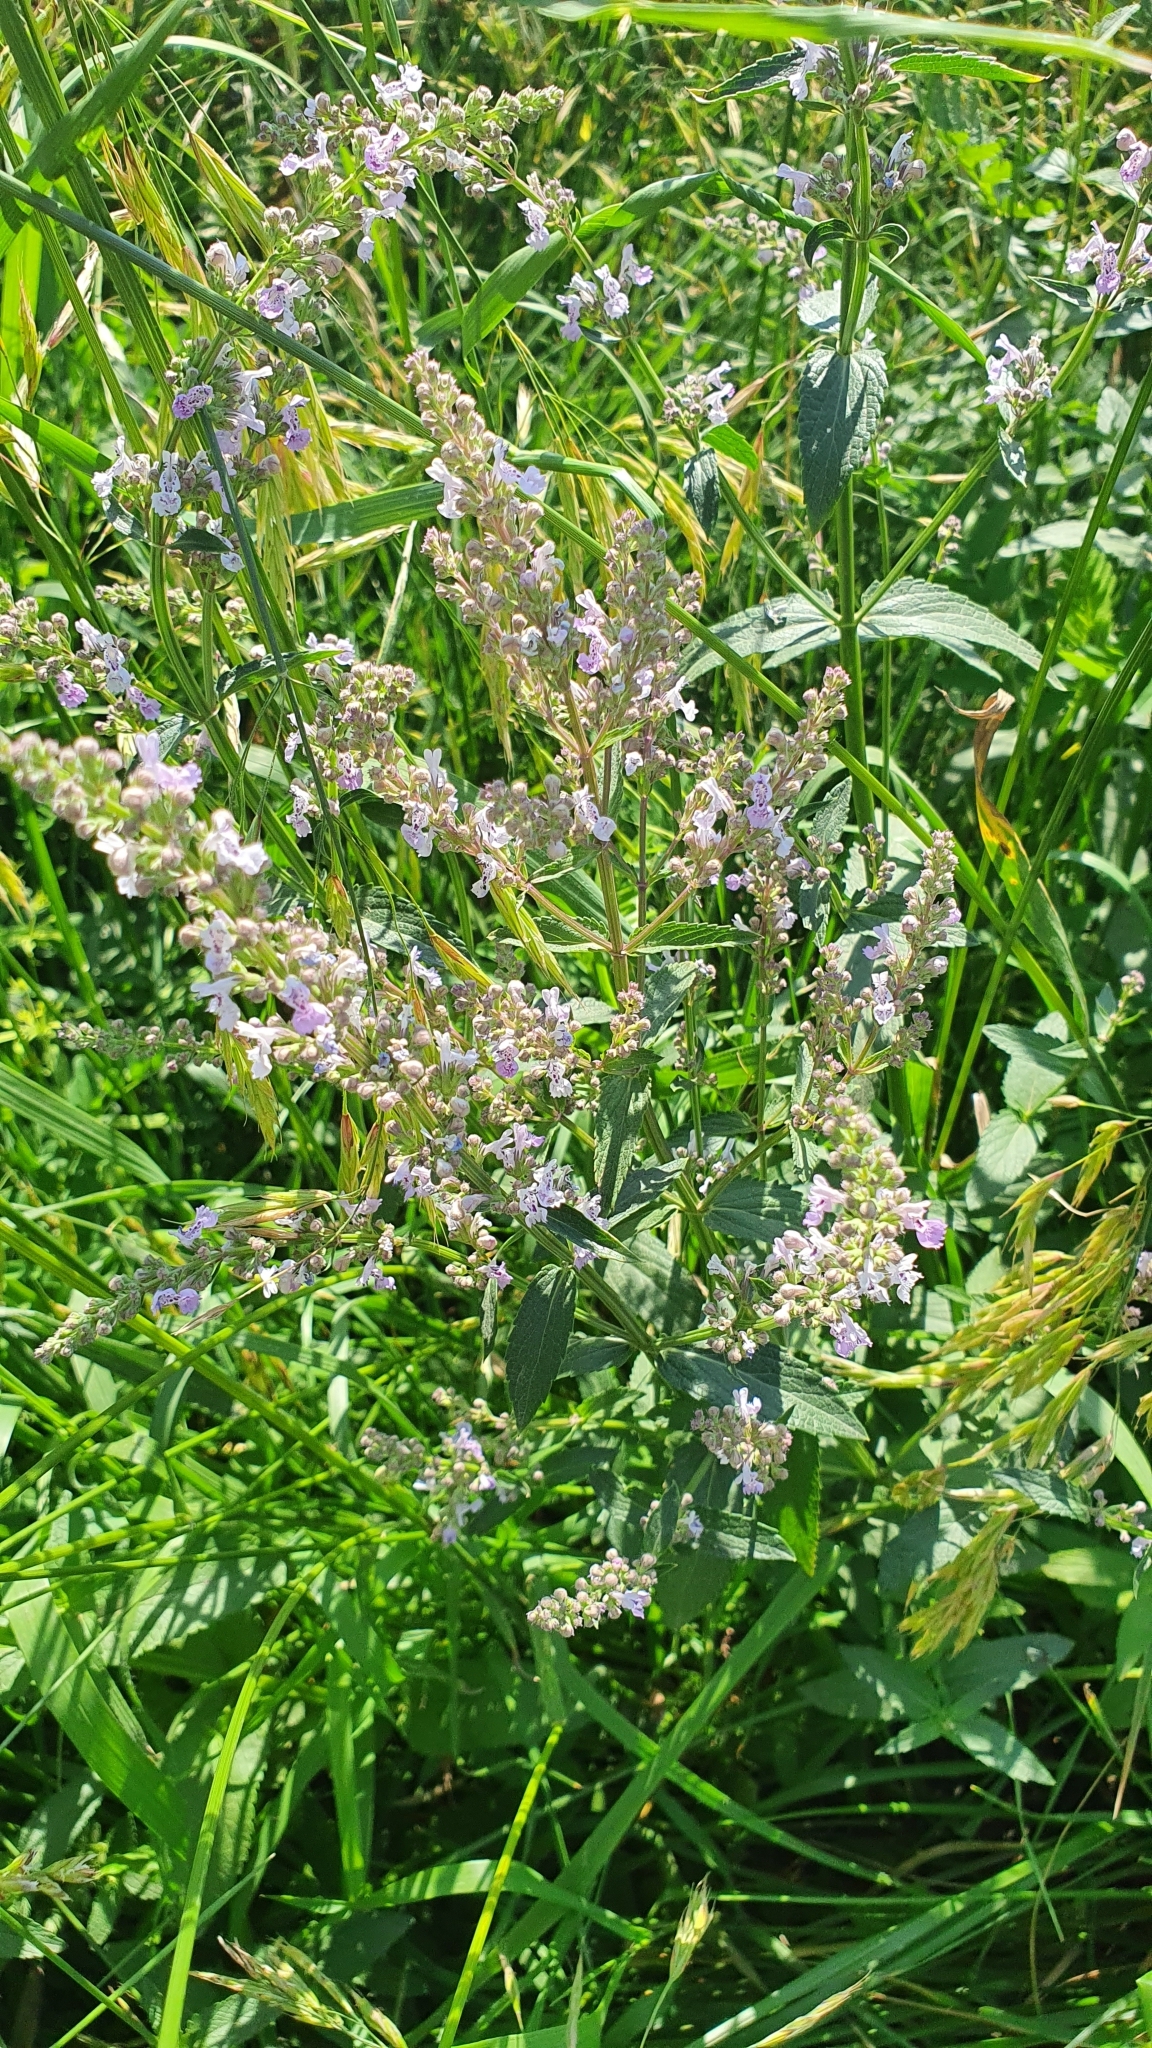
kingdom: Plantae
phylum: Tracheophyta
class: Magnoliopsida
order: Lamiales
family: Lamiaceae
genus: Nepeta
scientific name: Nepeta nuda
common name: Hairless catmint
